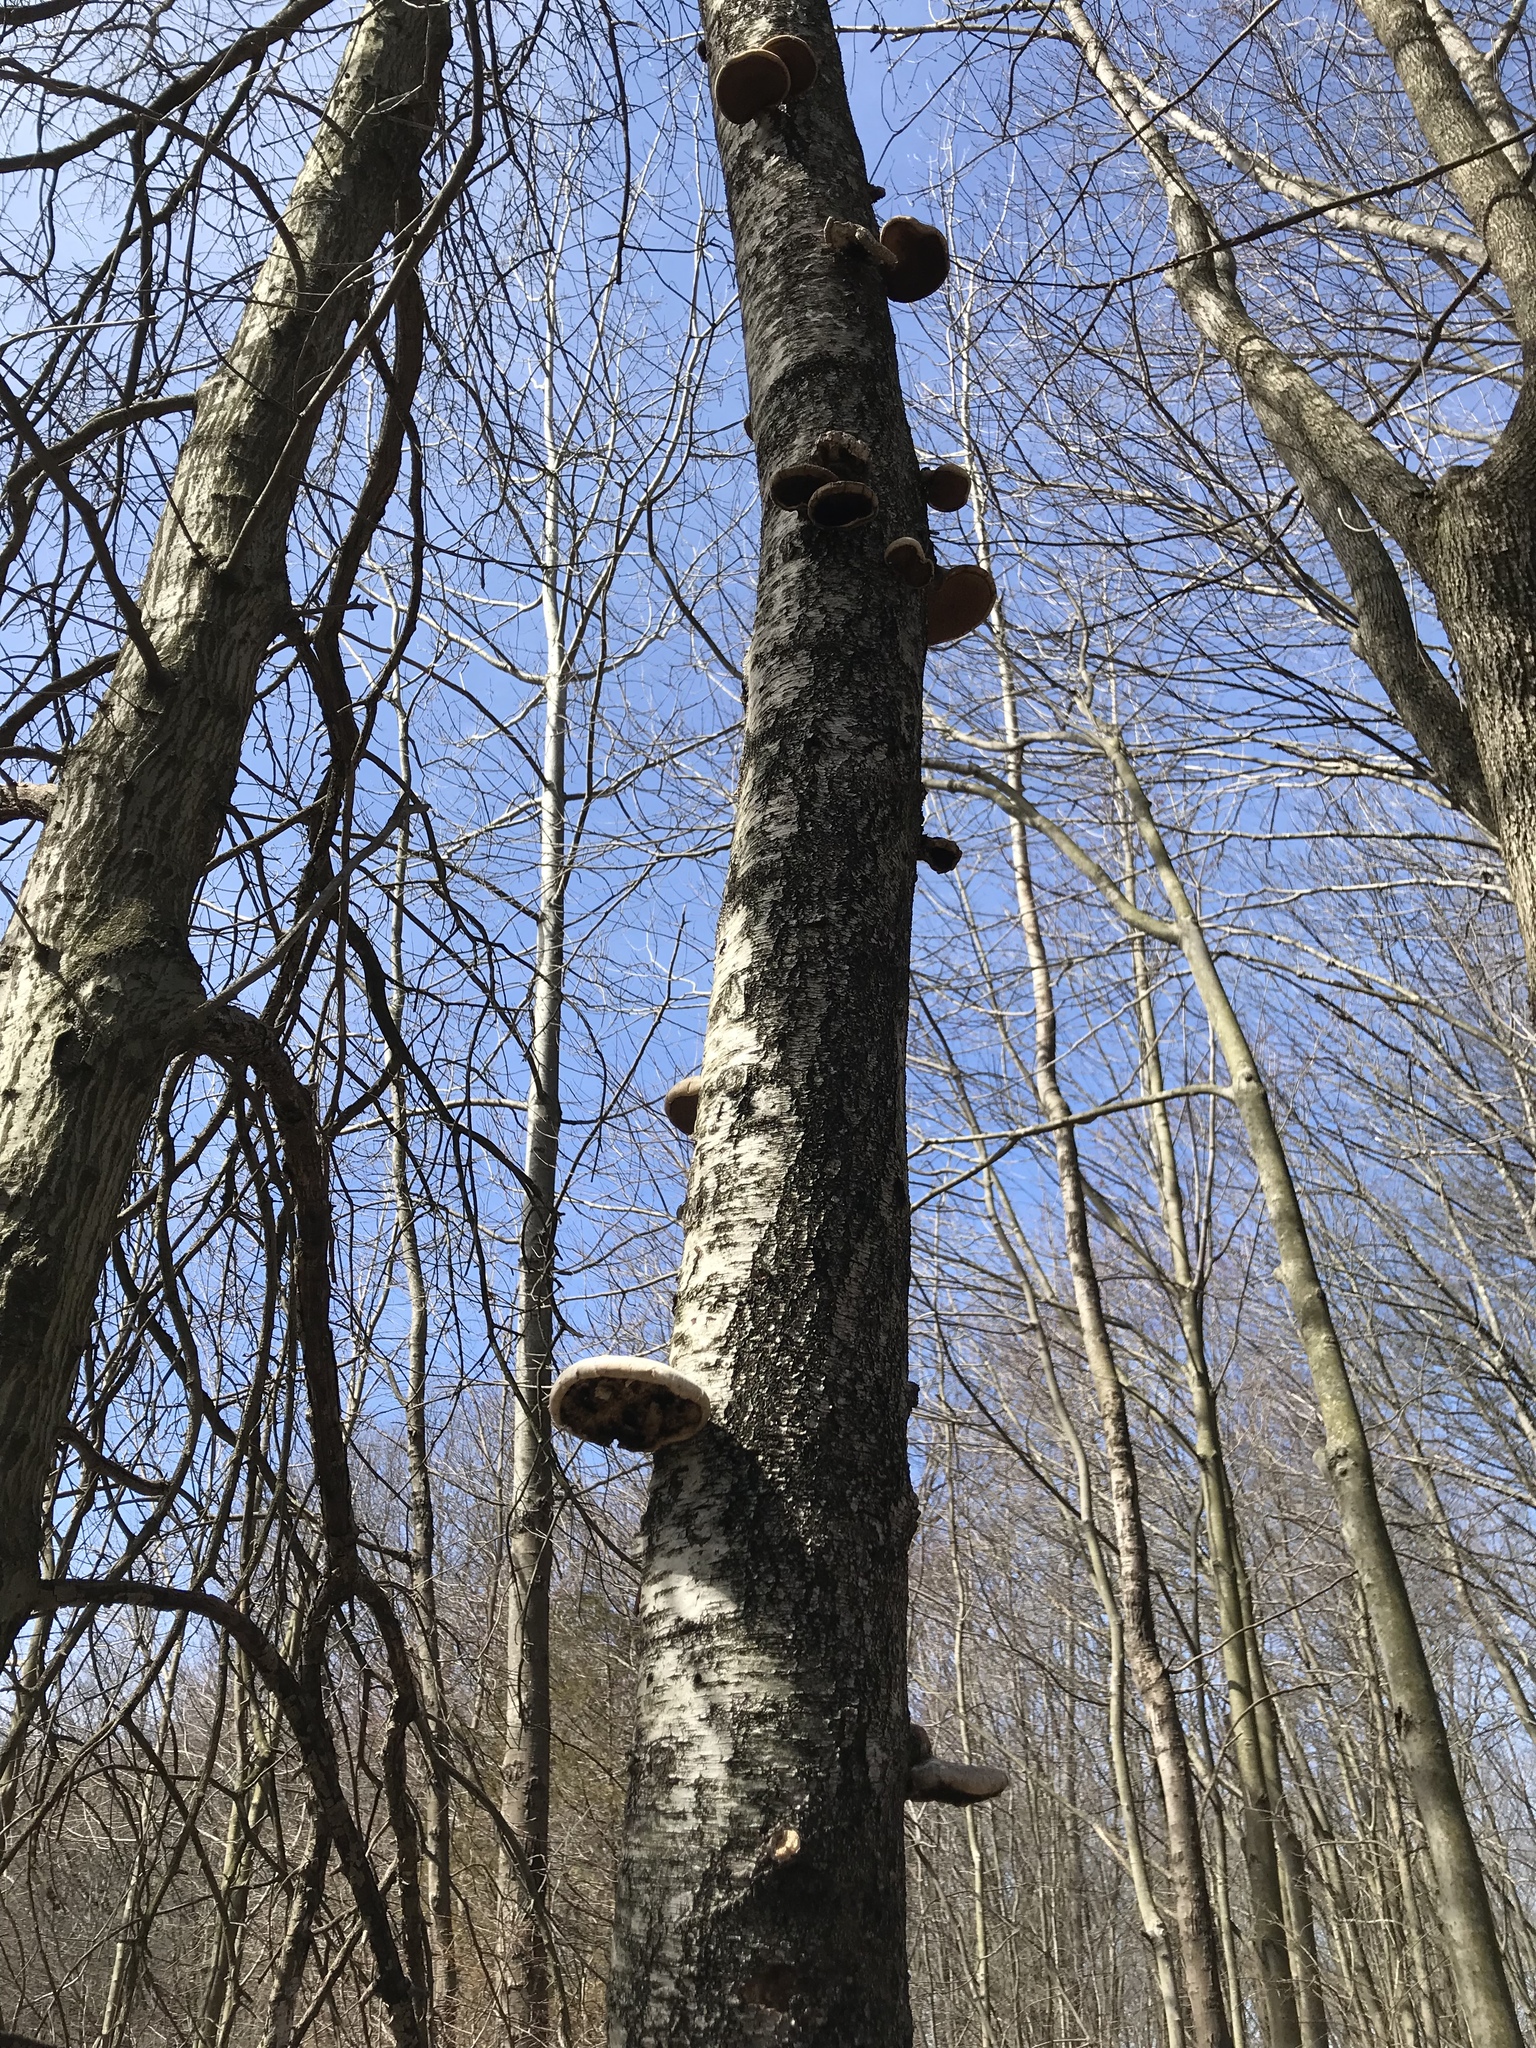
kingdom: Fungi
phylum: Basidiomycota
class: Agaricomycetes
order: Polyporales
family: Fomitopsidaceae
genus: Fomitopsis
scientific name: Fomitopsis betulina
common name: Birch polypore
